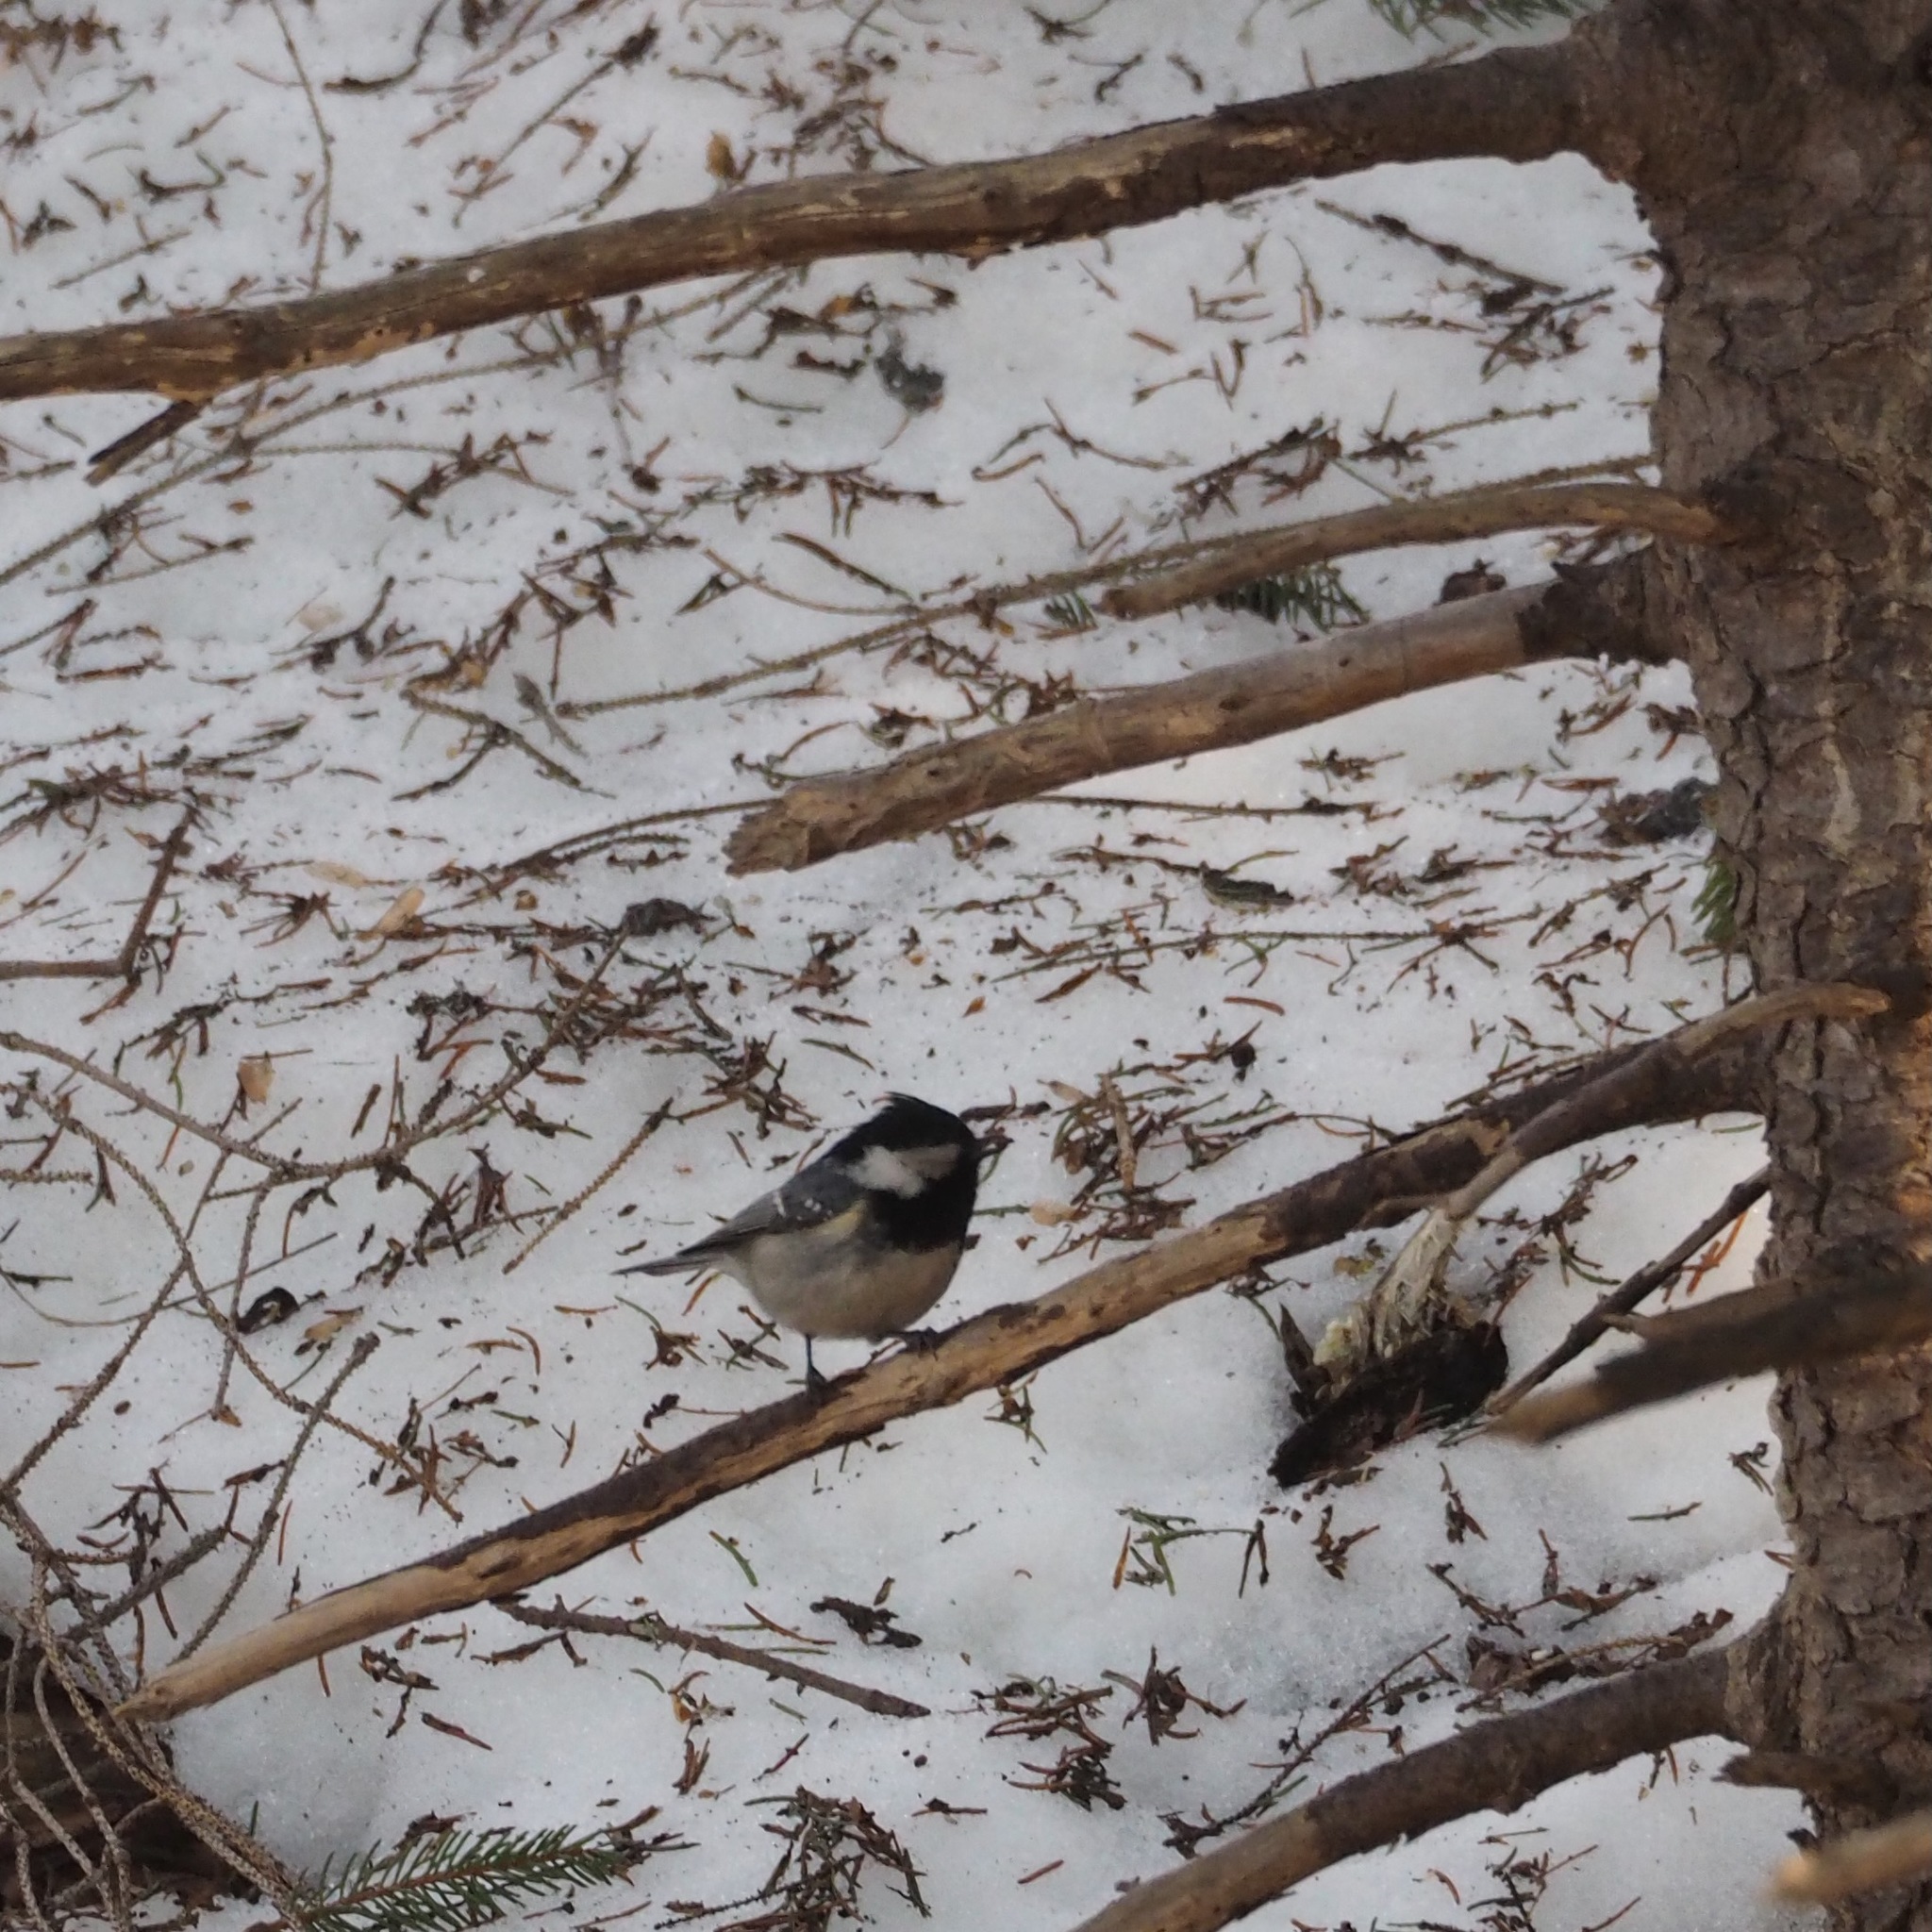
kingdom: Animalia
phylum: Chordata
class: Aves
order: Passeriformes
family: Paridae
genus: Periparus
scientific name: Periparus ater
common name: Coal tit
